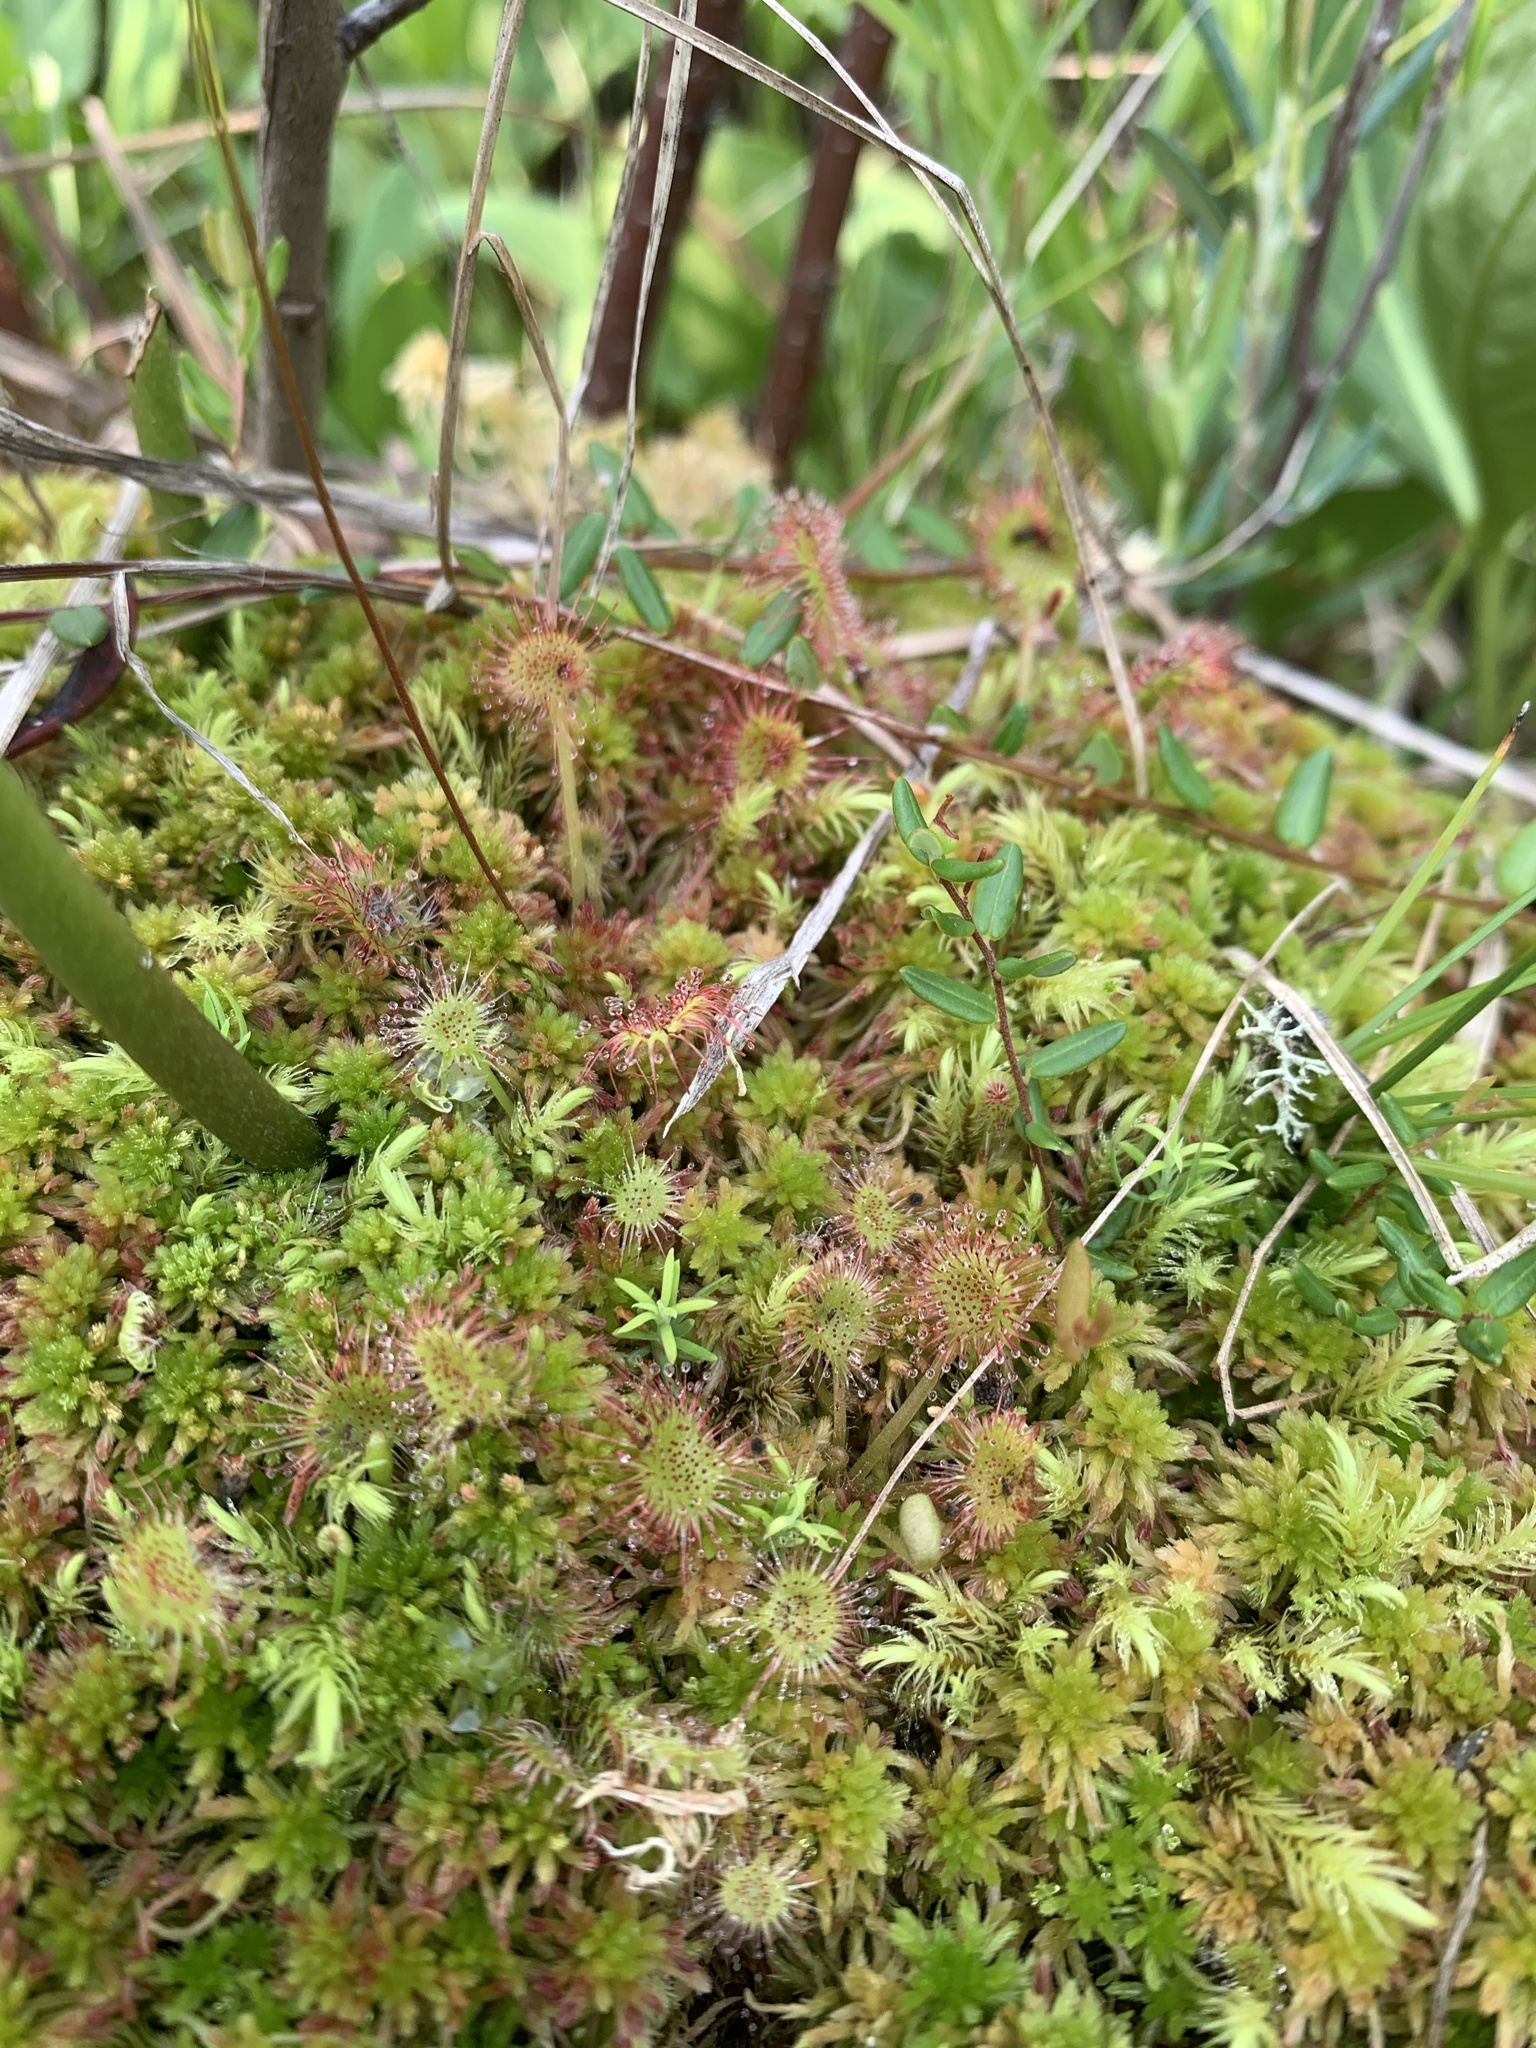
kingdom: Plantae
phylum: Tracheophyta
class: Magnoliopsida
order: Caryophyllales
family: Droseraceae
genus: Drosera
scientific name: Drosera rotundifolia
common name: Round-leaved sundew
